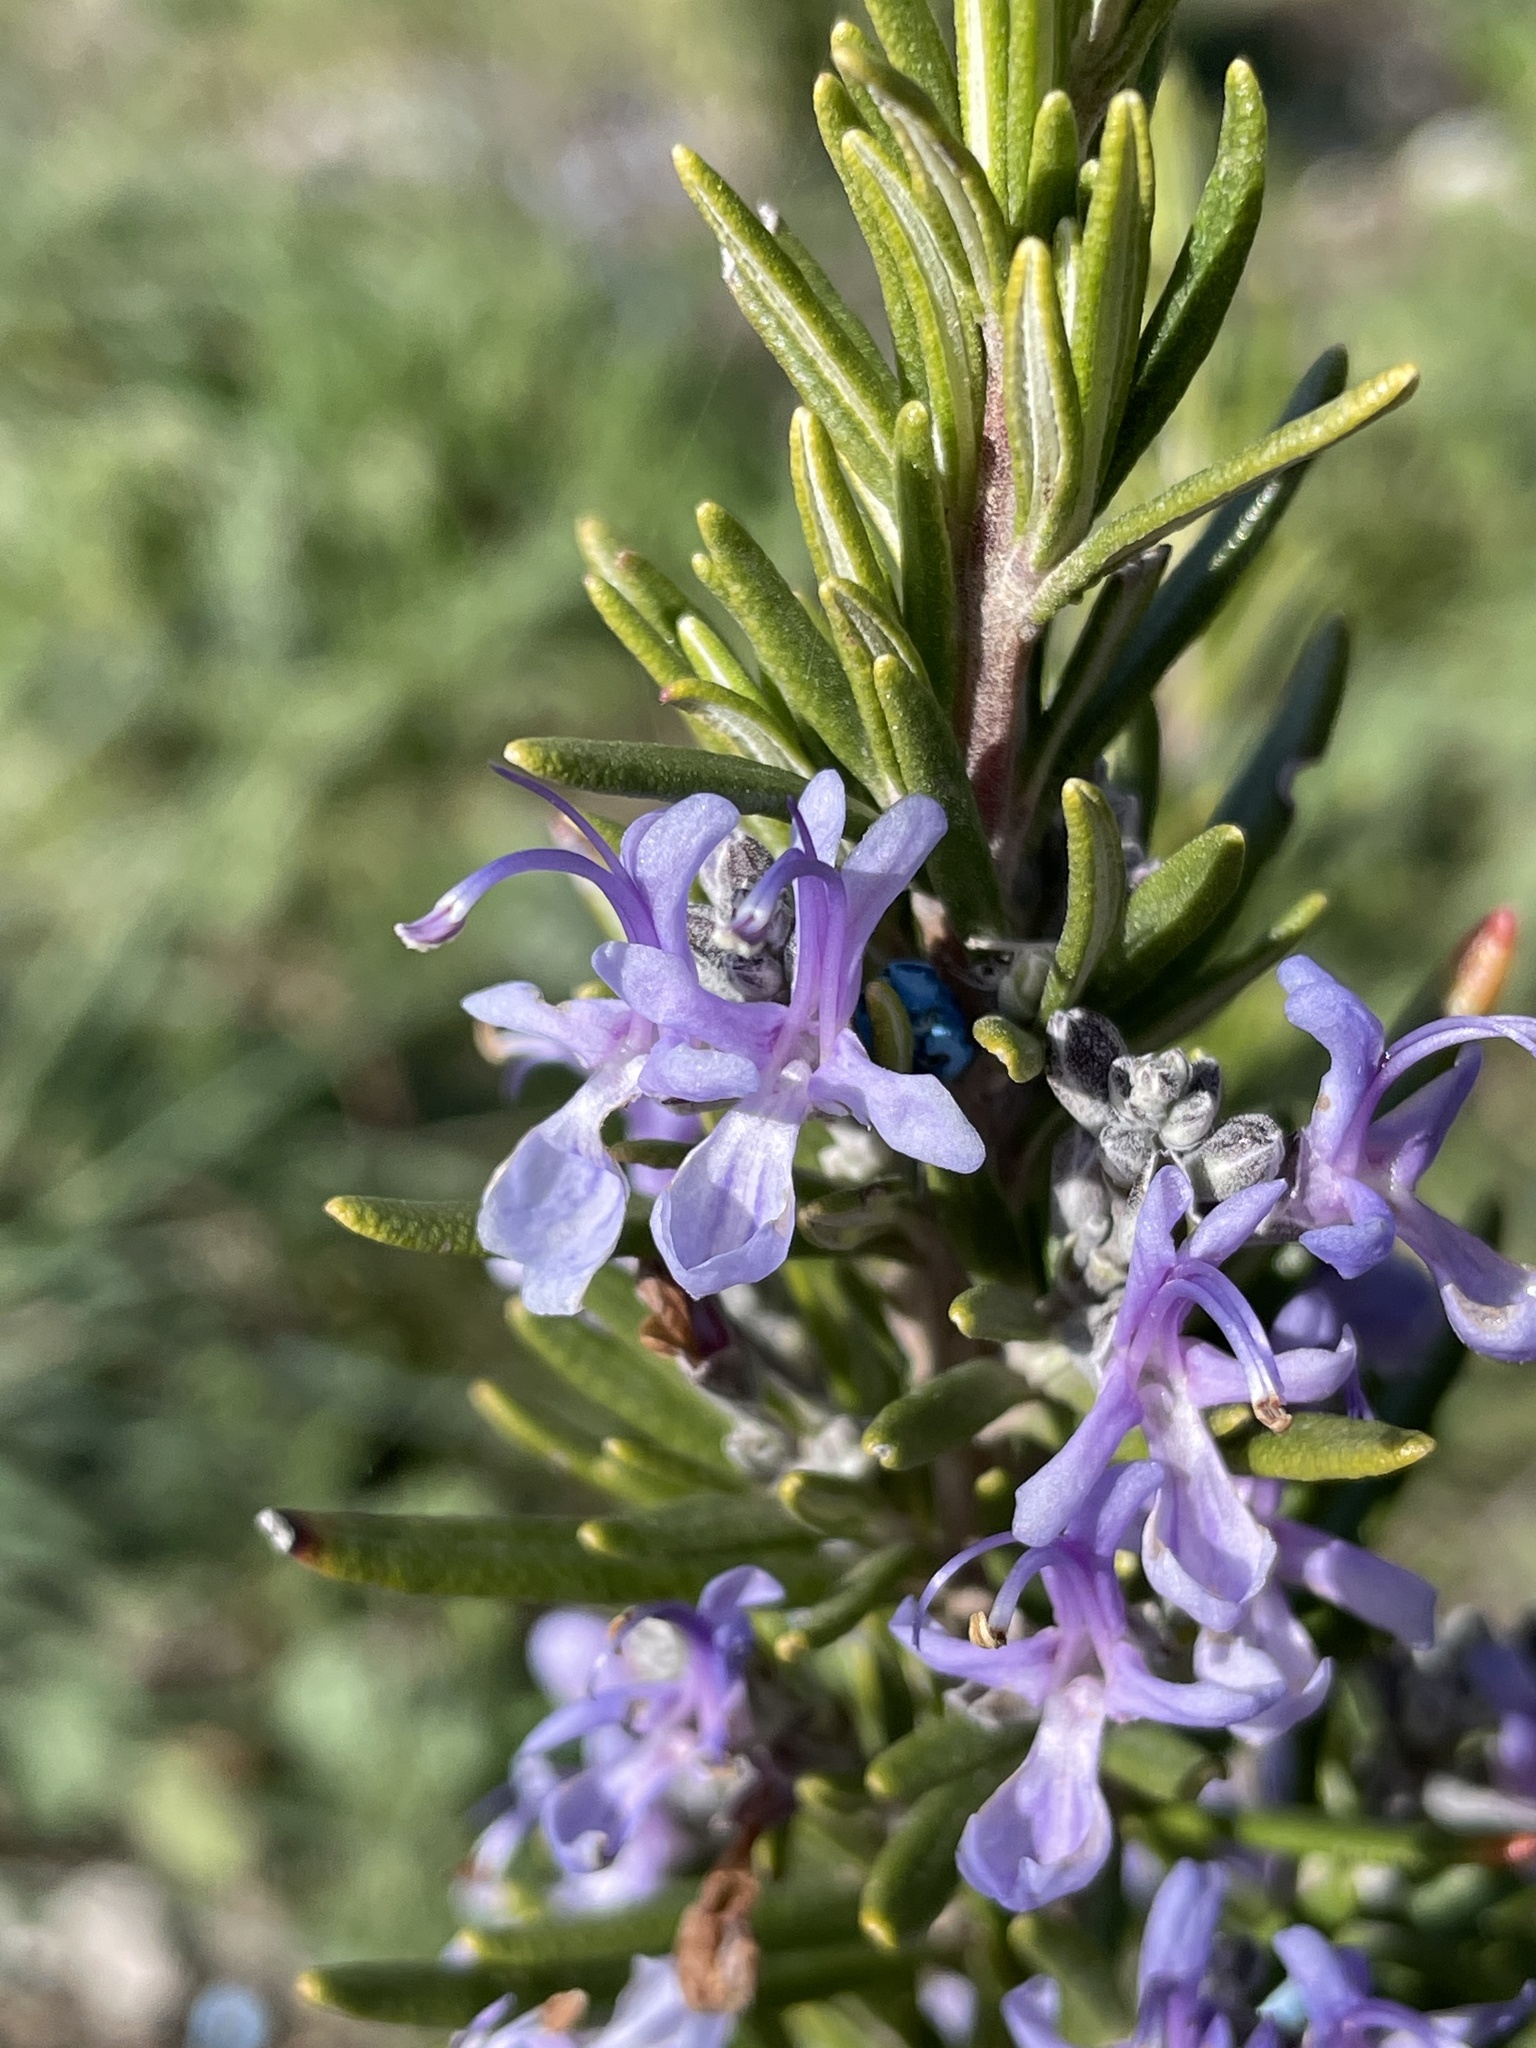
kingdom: Plantae
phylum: Tracheophyta
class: Magnoliopsida
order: Lamiales
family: Lamiaceae
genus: Salvia
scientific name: Salvia rosmarinus
